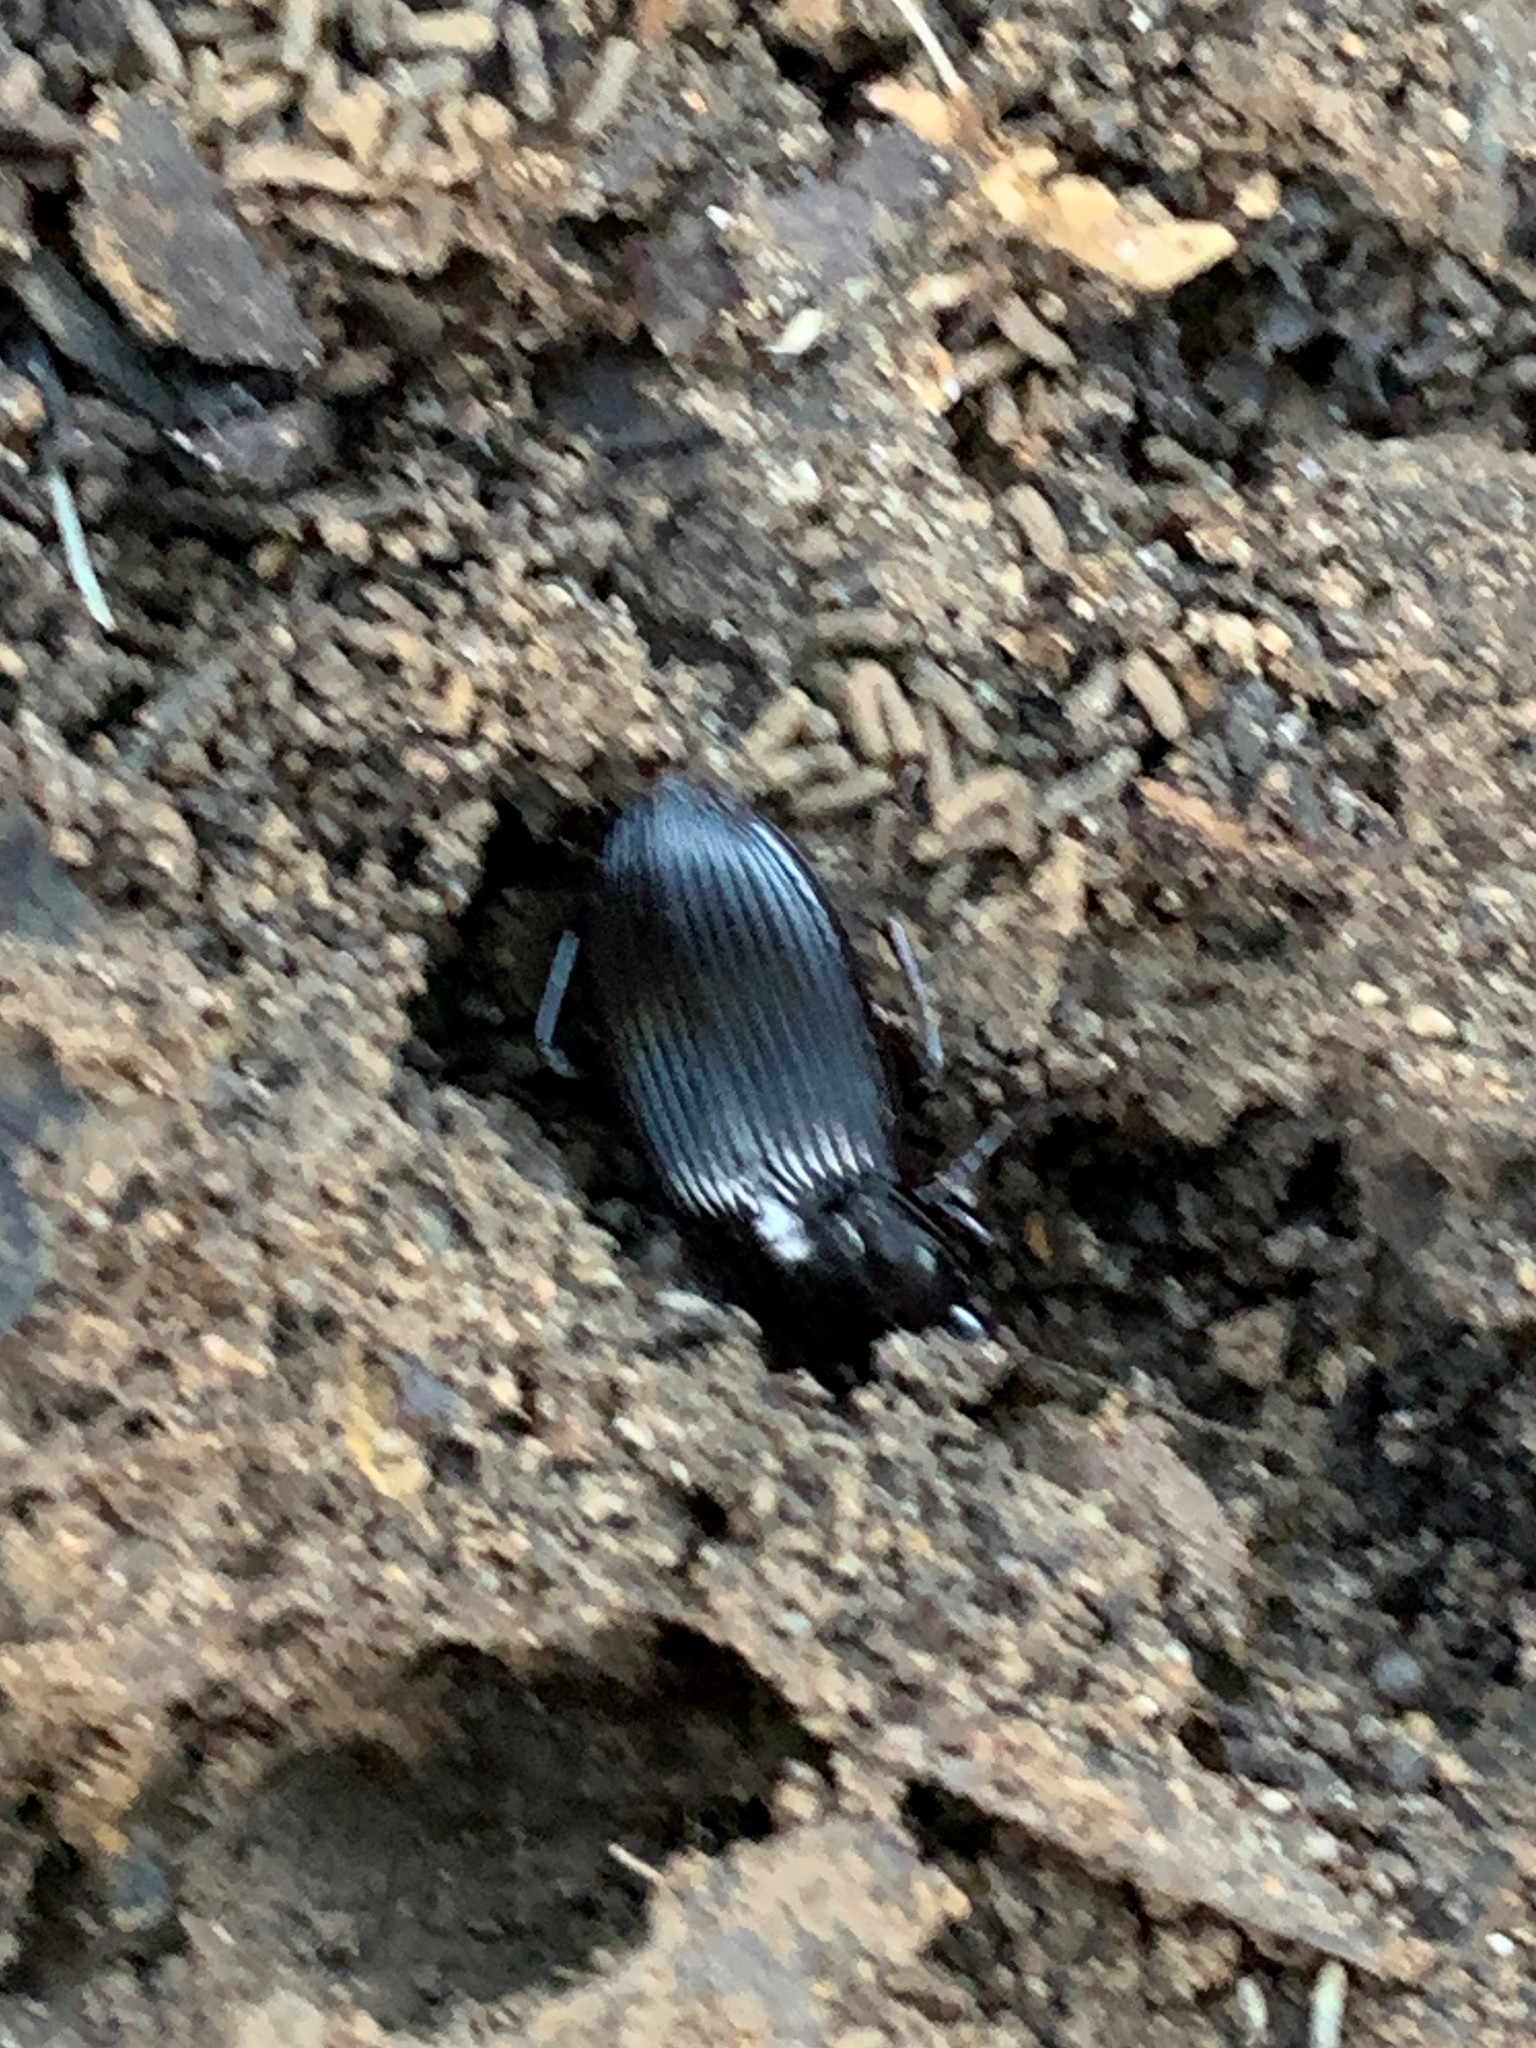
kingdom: Animalia
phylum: Arthropoda
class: Insecta
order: Coleoptera
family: Carabidae
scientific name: Carabidae
